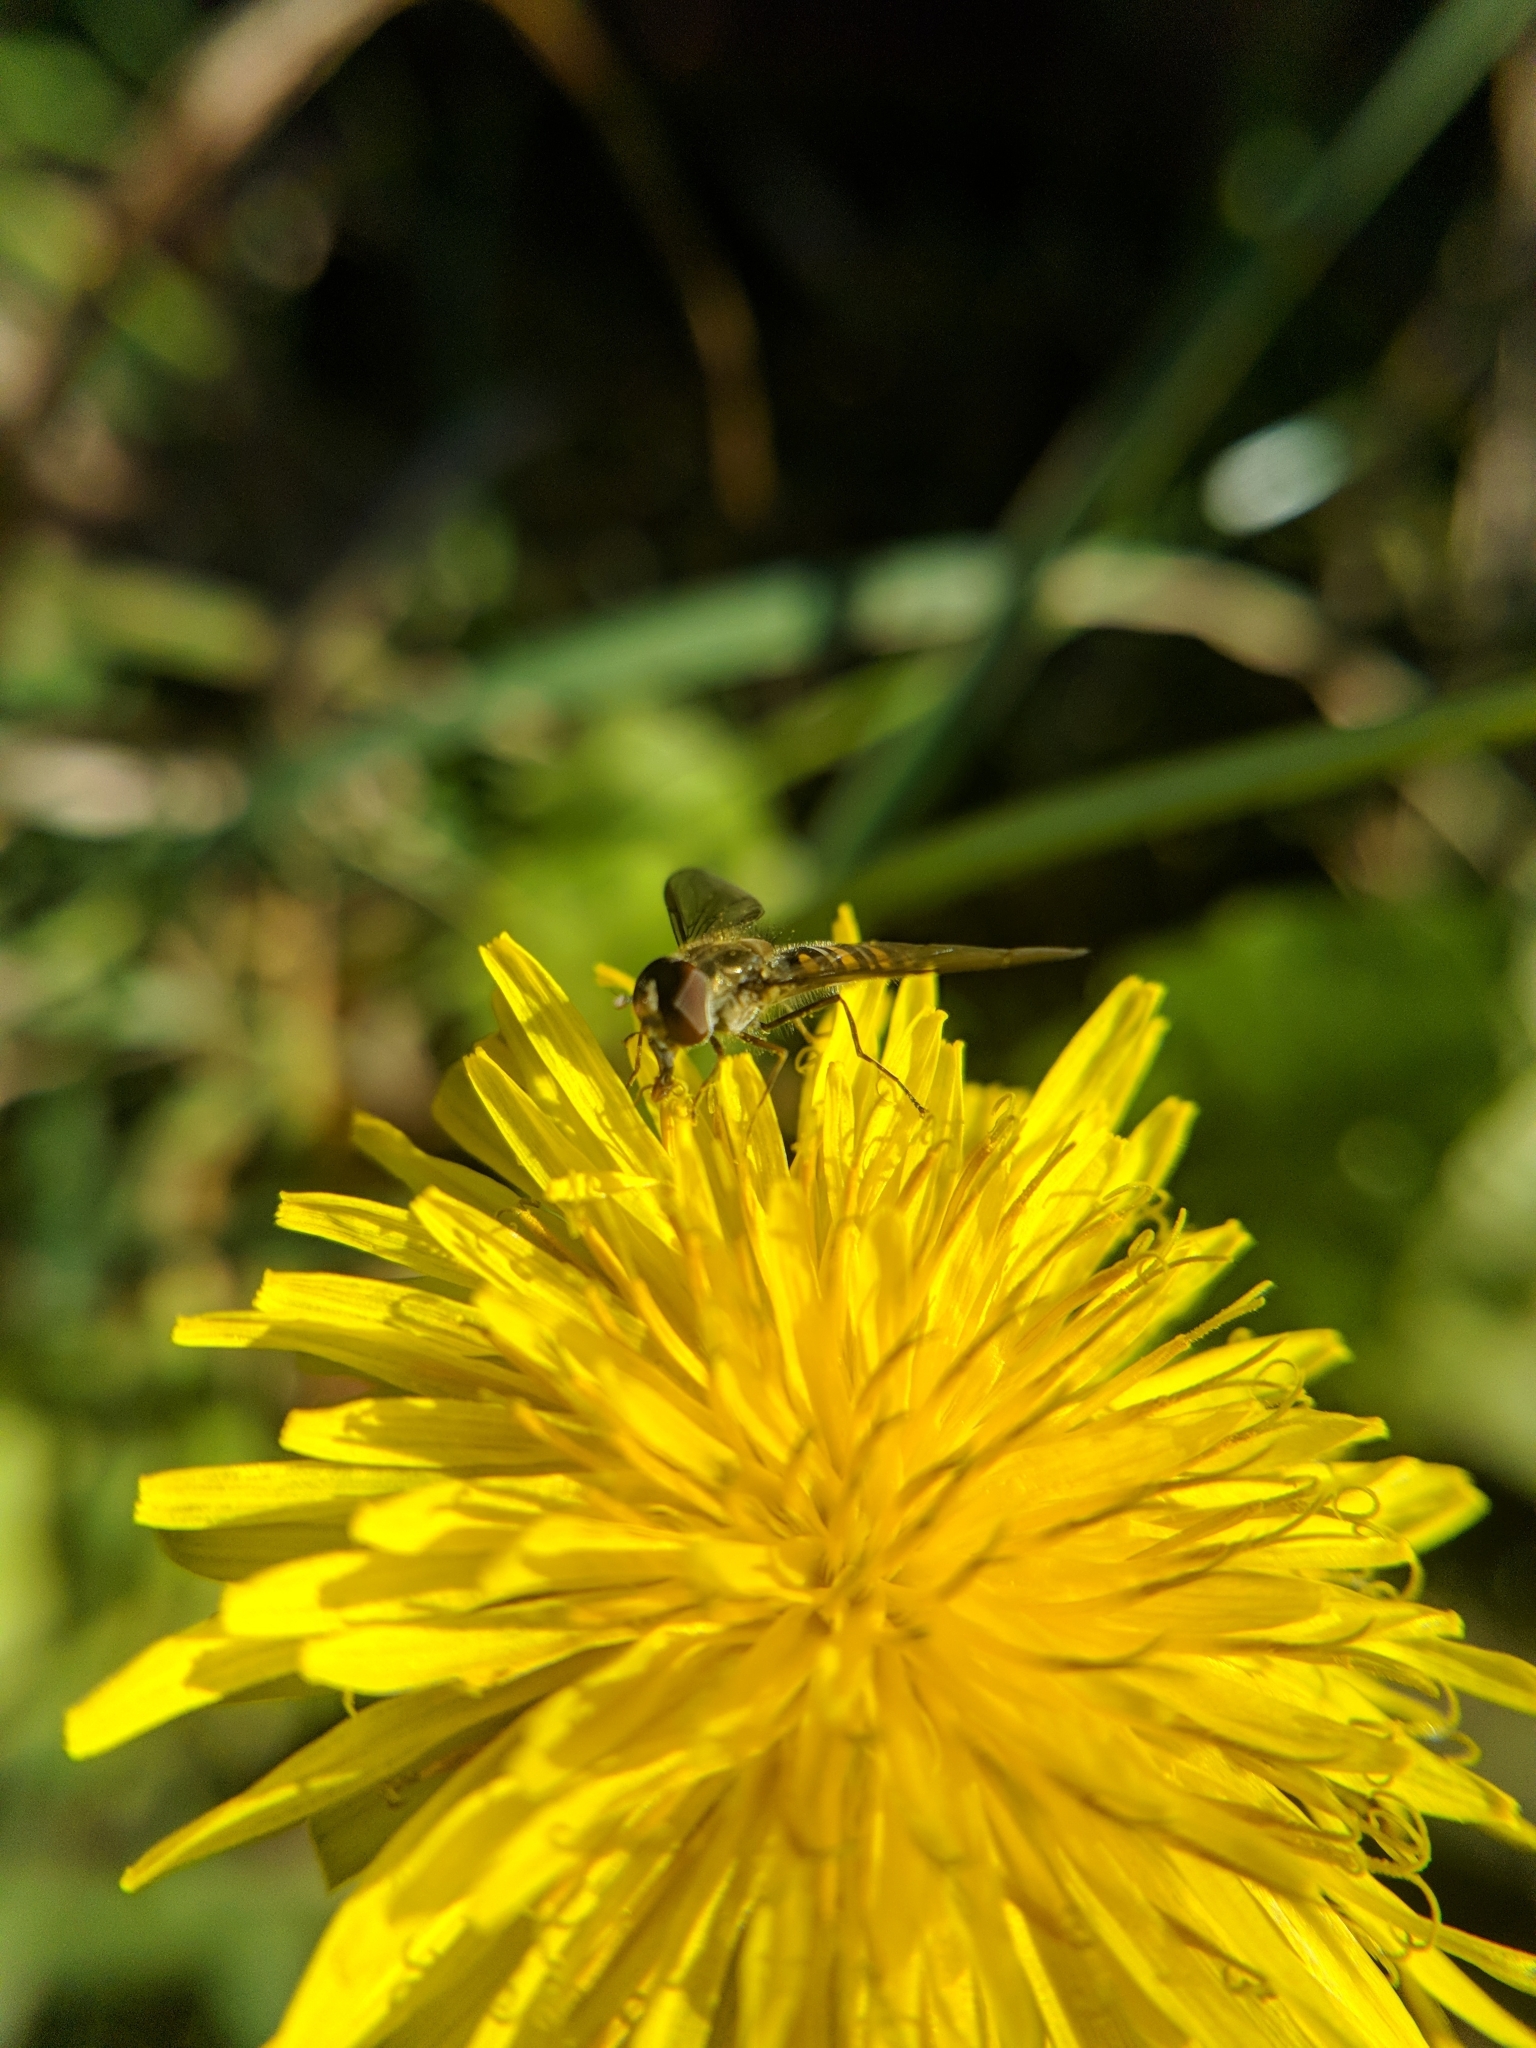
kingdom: Animalia
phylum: Arthropoda
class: Insecta
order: Diptera
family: Syrphidae
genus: Episyrphus
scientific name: Episyrphus balteatus
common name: Marmalade hoverfly
